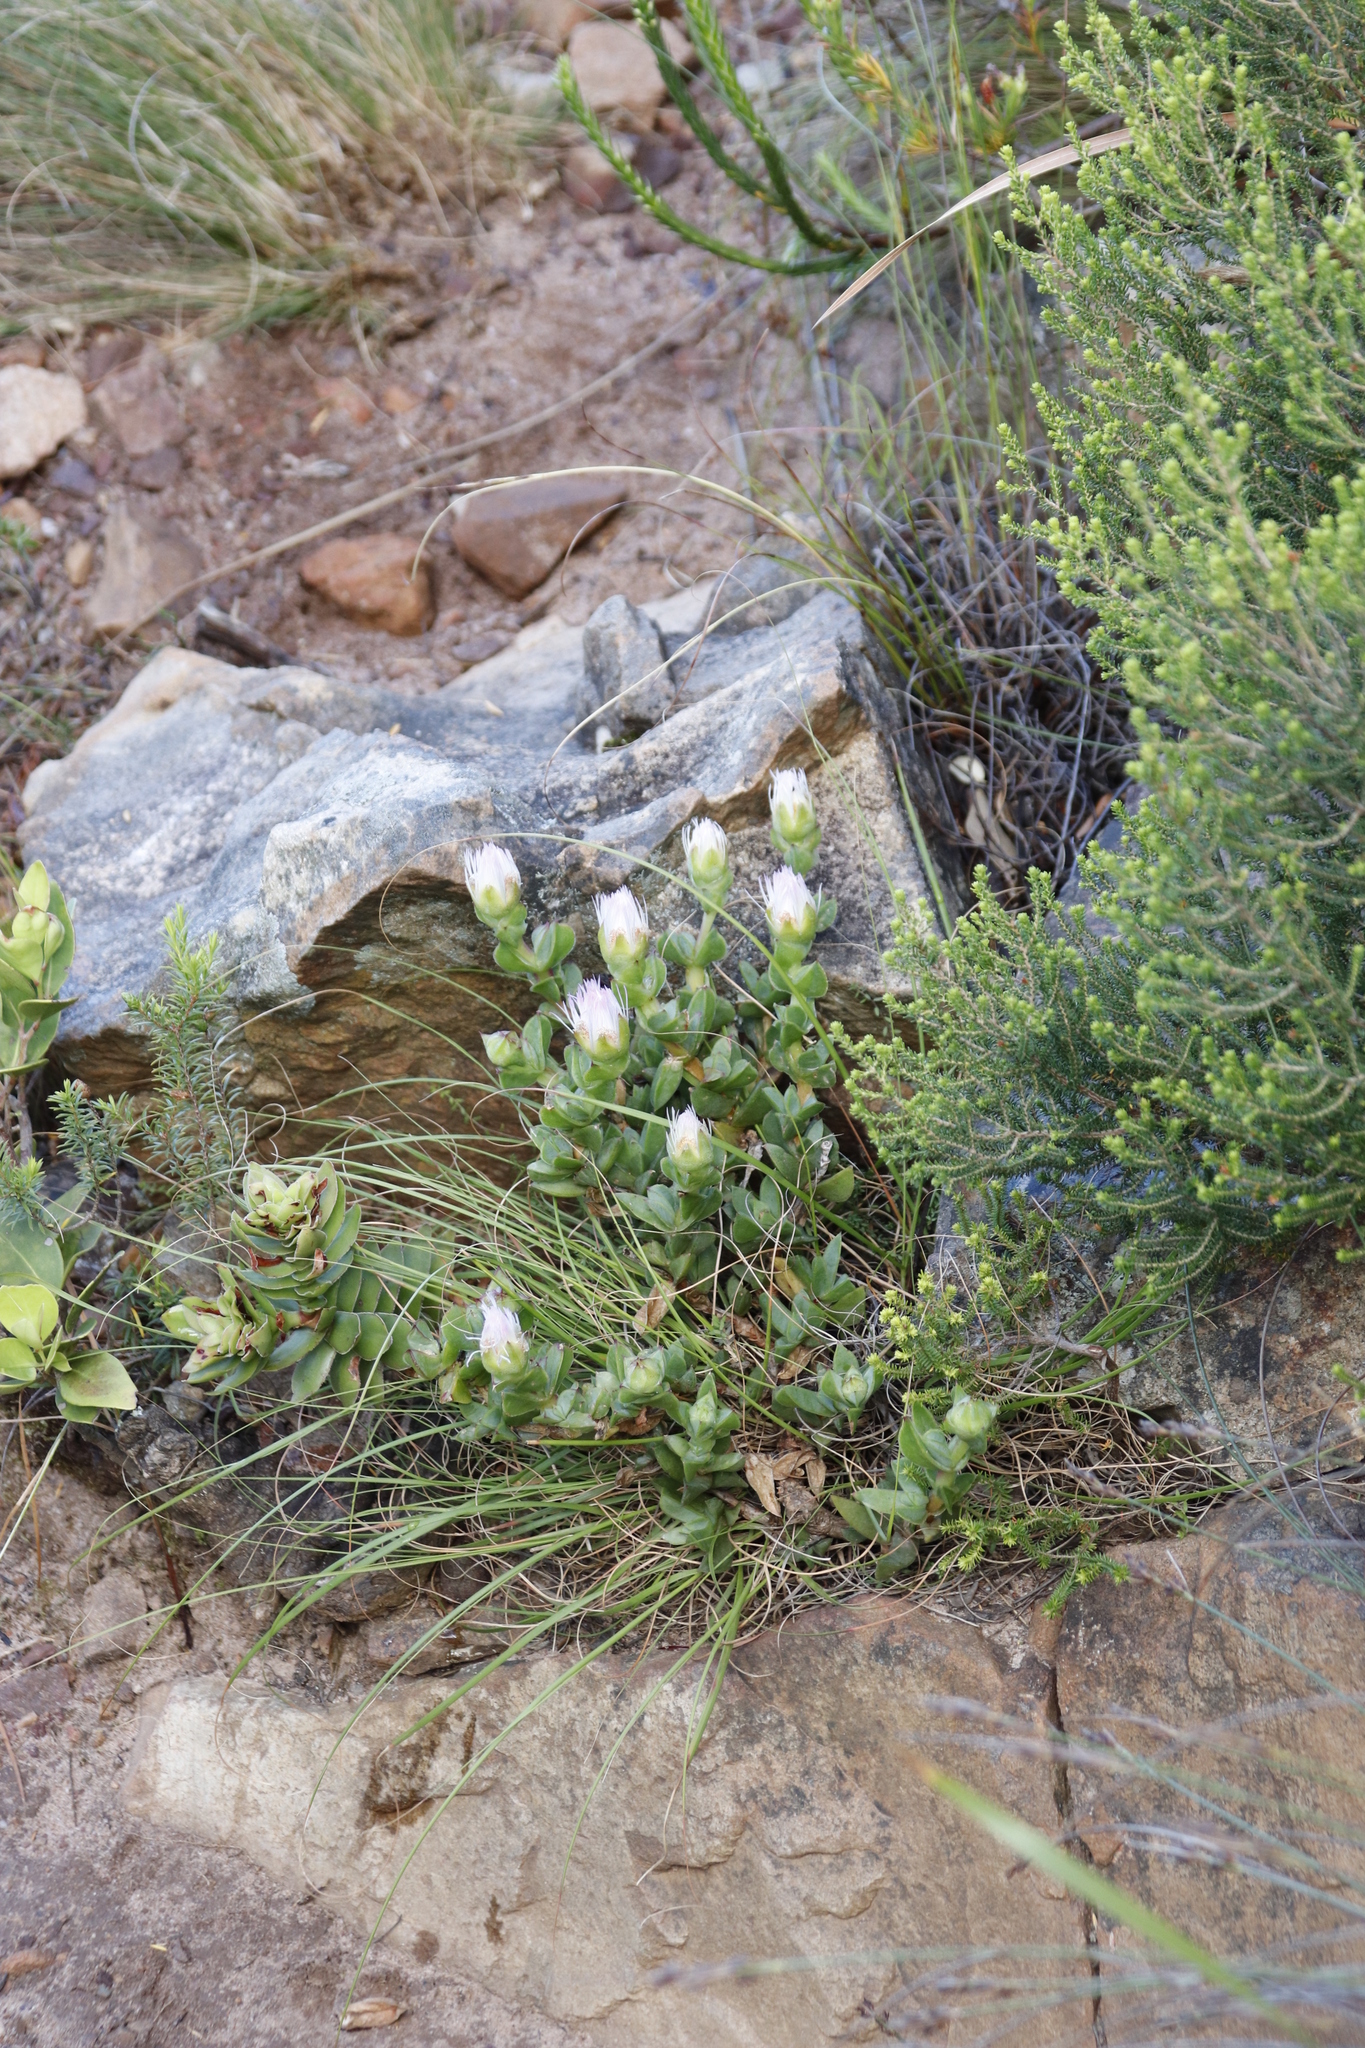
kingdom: Plantae
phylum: Tracheophyta
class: Magnoliopsida
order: Caryophyllales
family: Aizoaceae
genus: Erepsia
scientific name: Erepsia forficata
